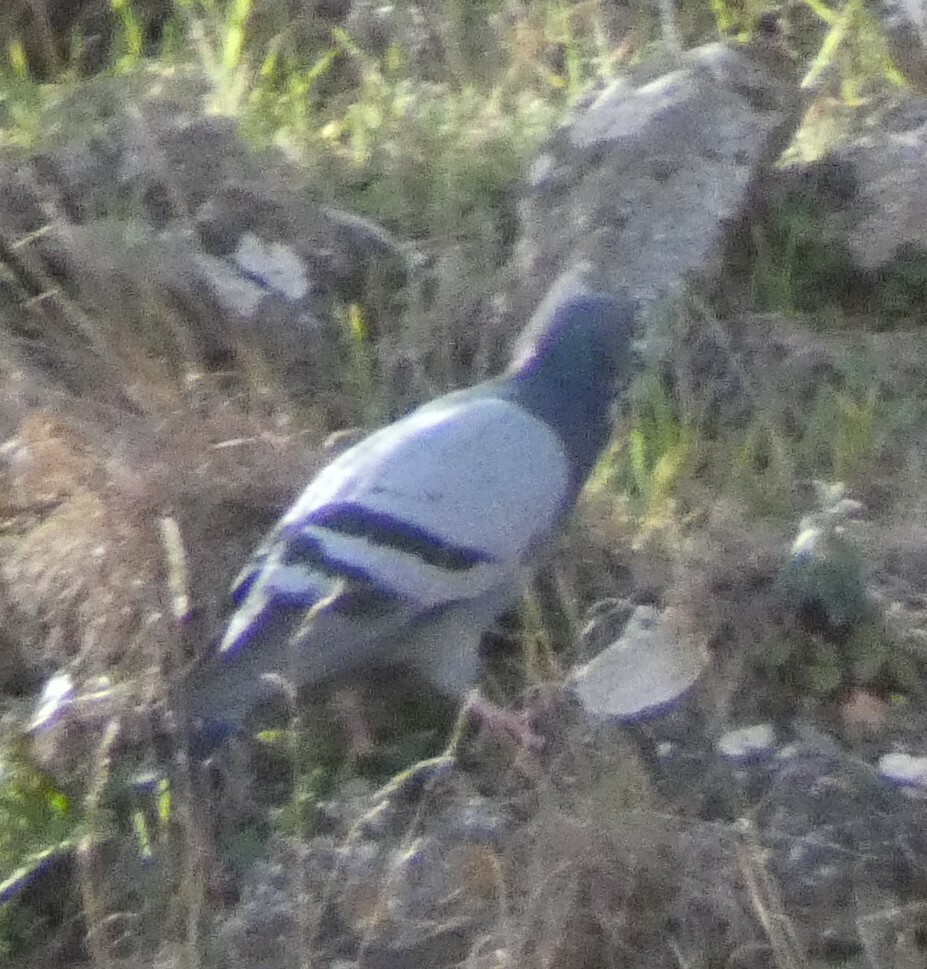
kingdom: Animalia
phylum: Chordata
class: Aves
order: Columbiformes
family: Columbidae
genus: Columba
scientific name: Columba livia
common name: Rock pigeon
